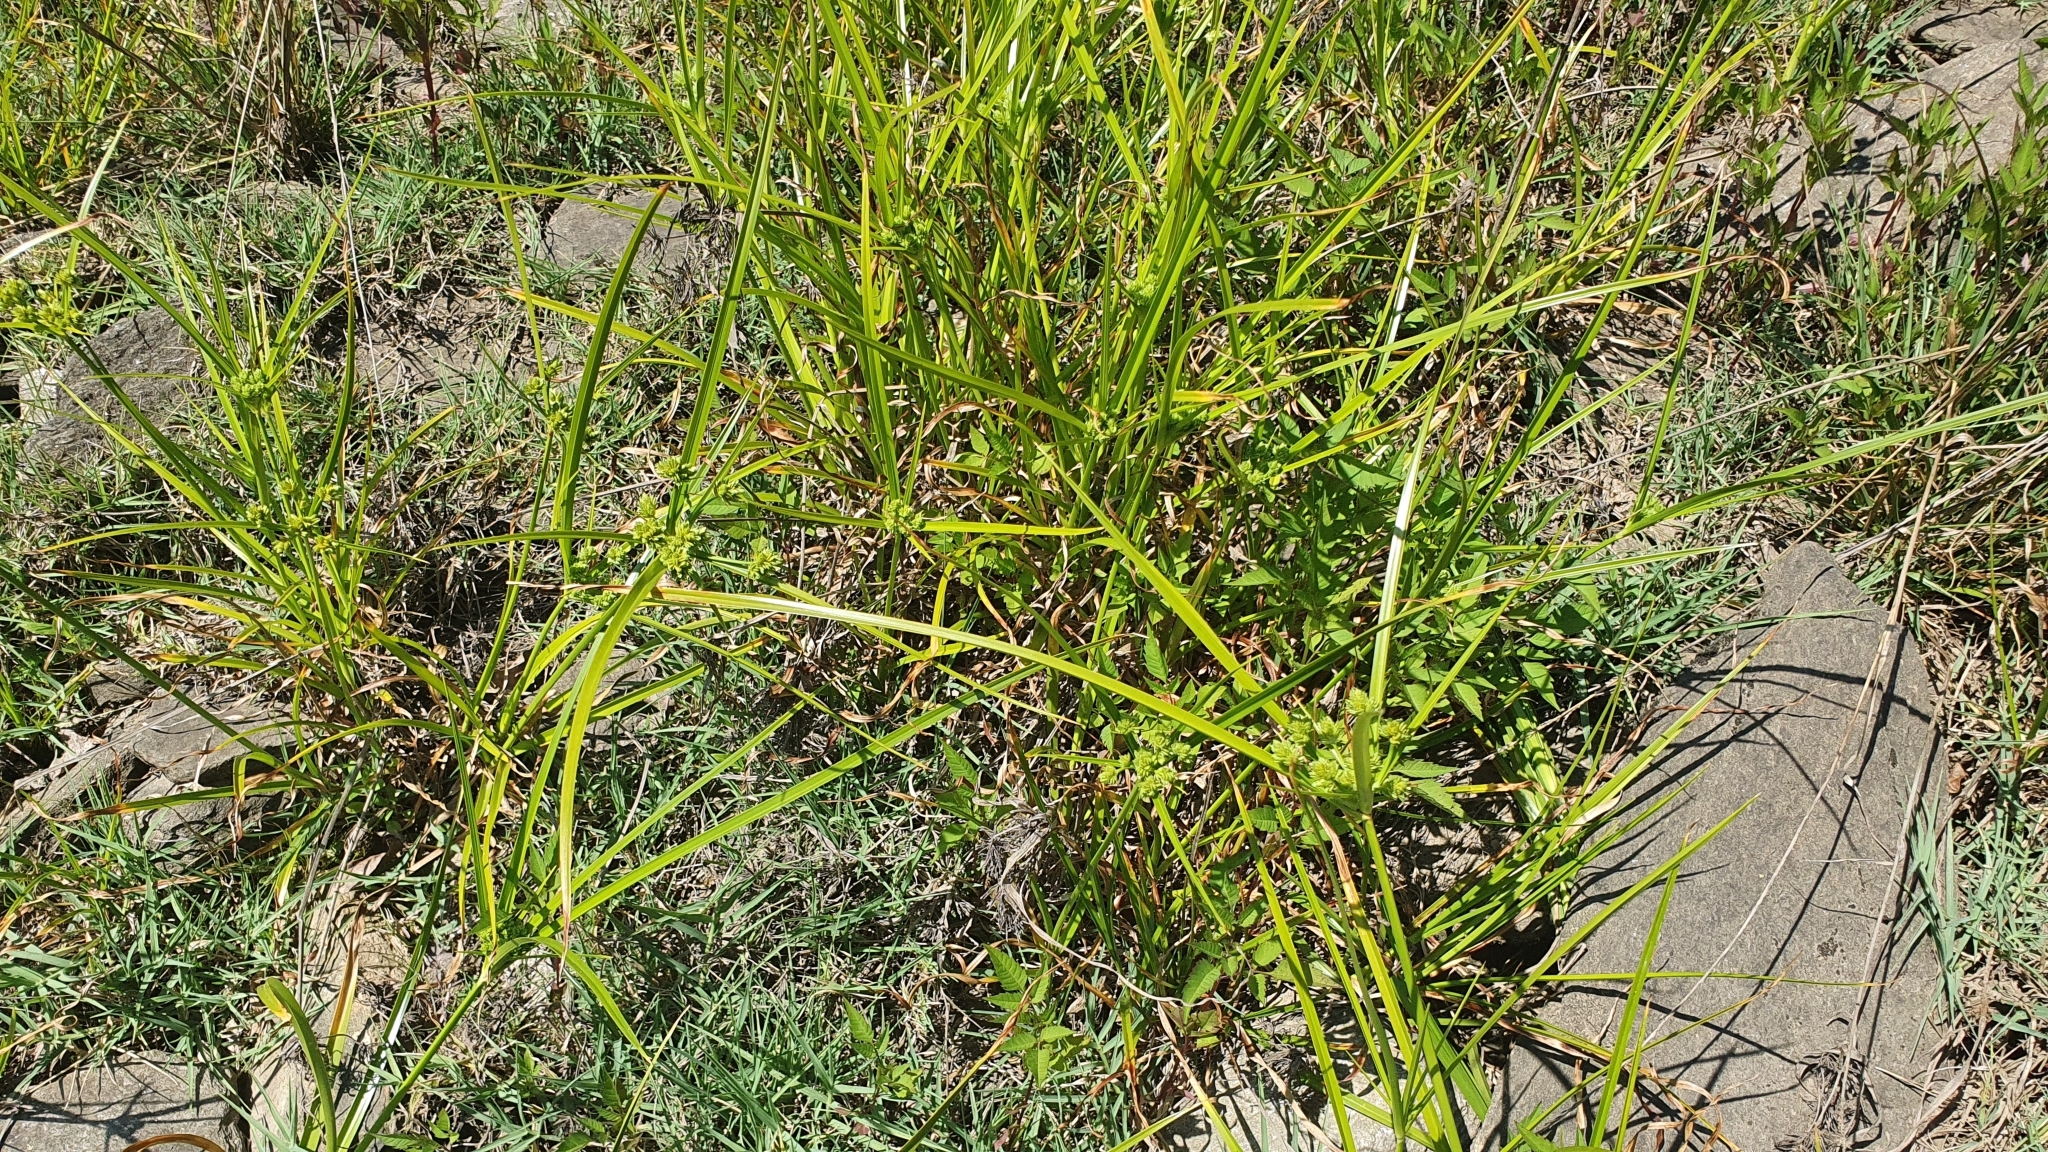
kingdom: Plantae
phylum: Tracheophyta
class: Liliopsida
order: Poales
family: Cyperaceae
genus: Cyperus
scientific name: Cyperus eragrostis
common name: Tall flatsedge
